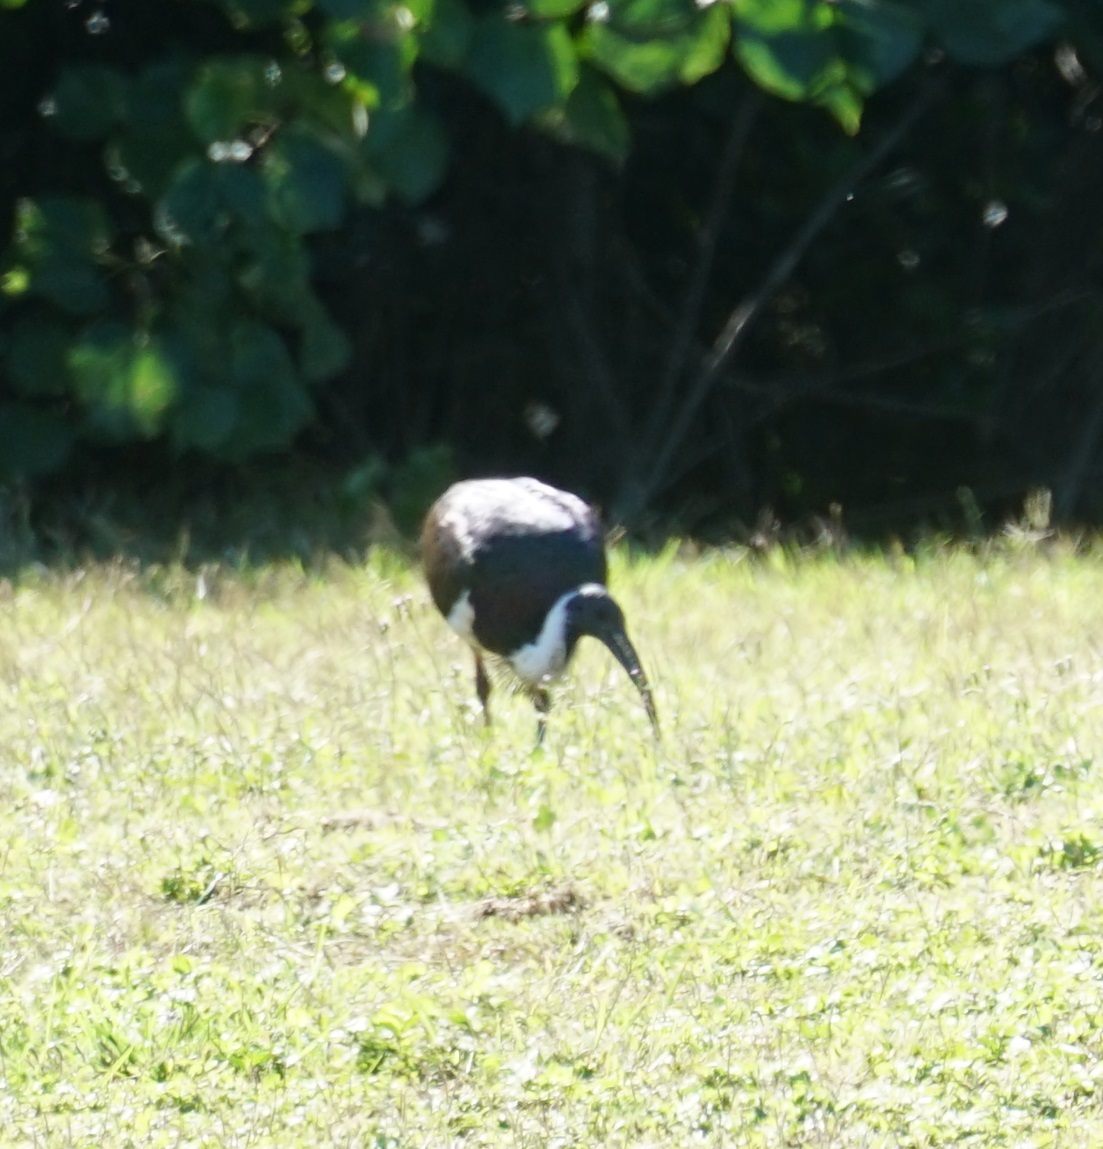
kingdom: Animalia
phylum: Chordata
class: Aves
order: Pelecaniformes
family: Threskiornithidae
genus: Threskiornis
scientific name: Threskiornis spinicollis
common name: Straw-necked ibis
